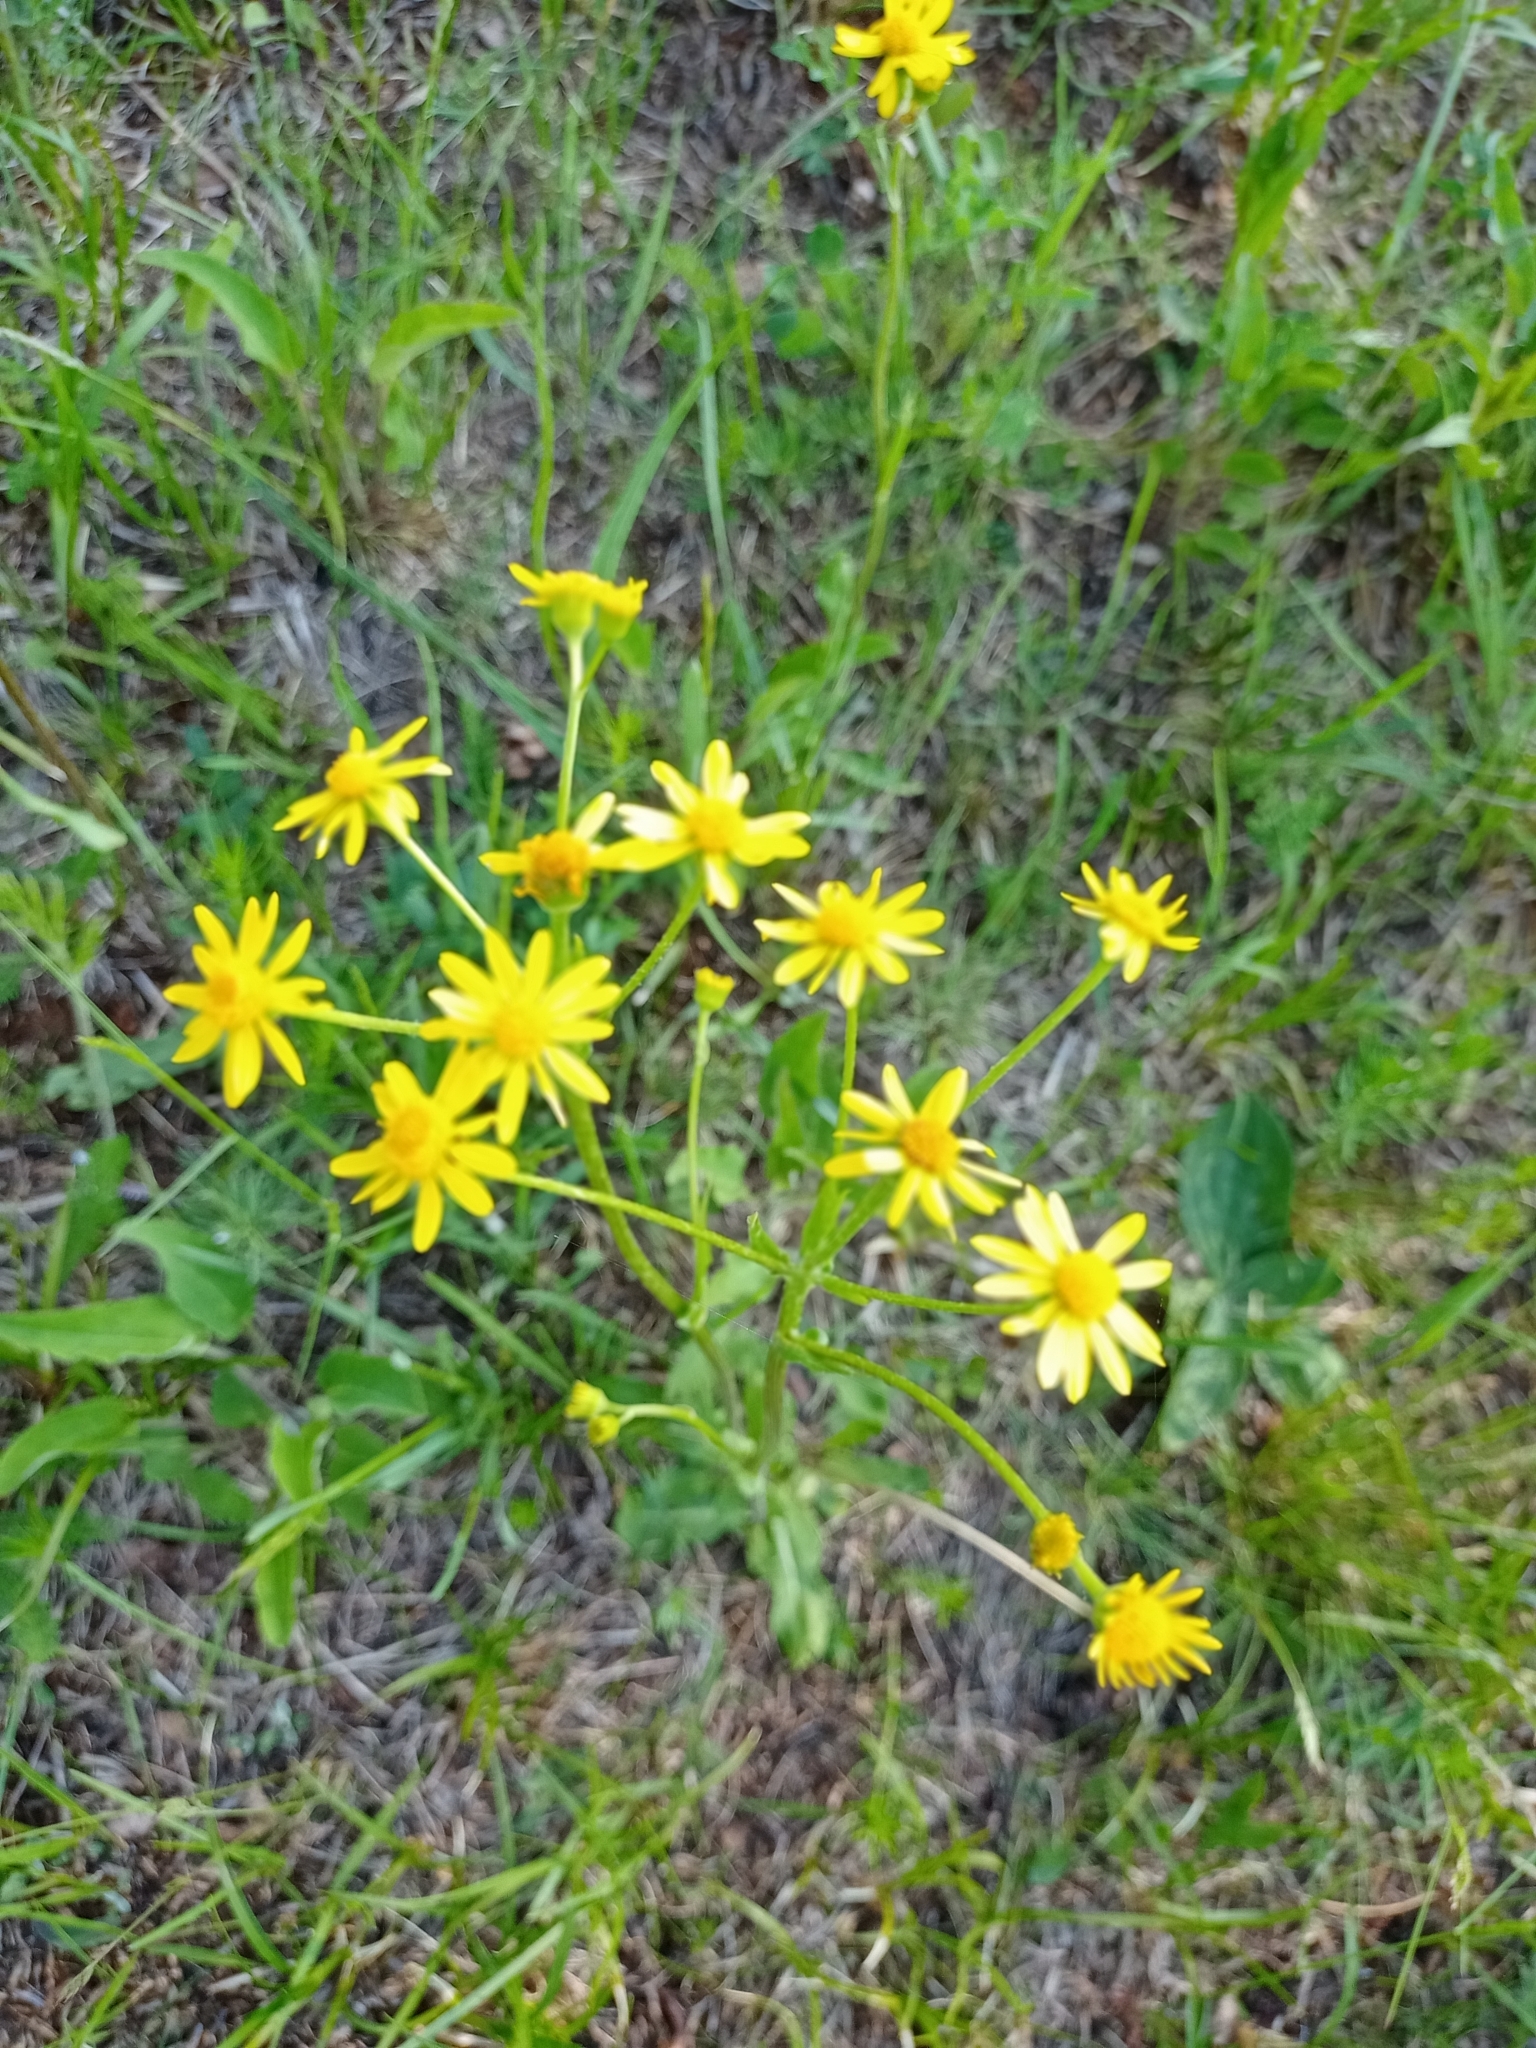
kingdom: Plantae
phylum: Tracheophyta
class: Magnoliopsida
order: Asterales
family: Asteraceae
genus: Tephroseris
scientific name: Tephroseris integrifolia
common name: Field fleawort
